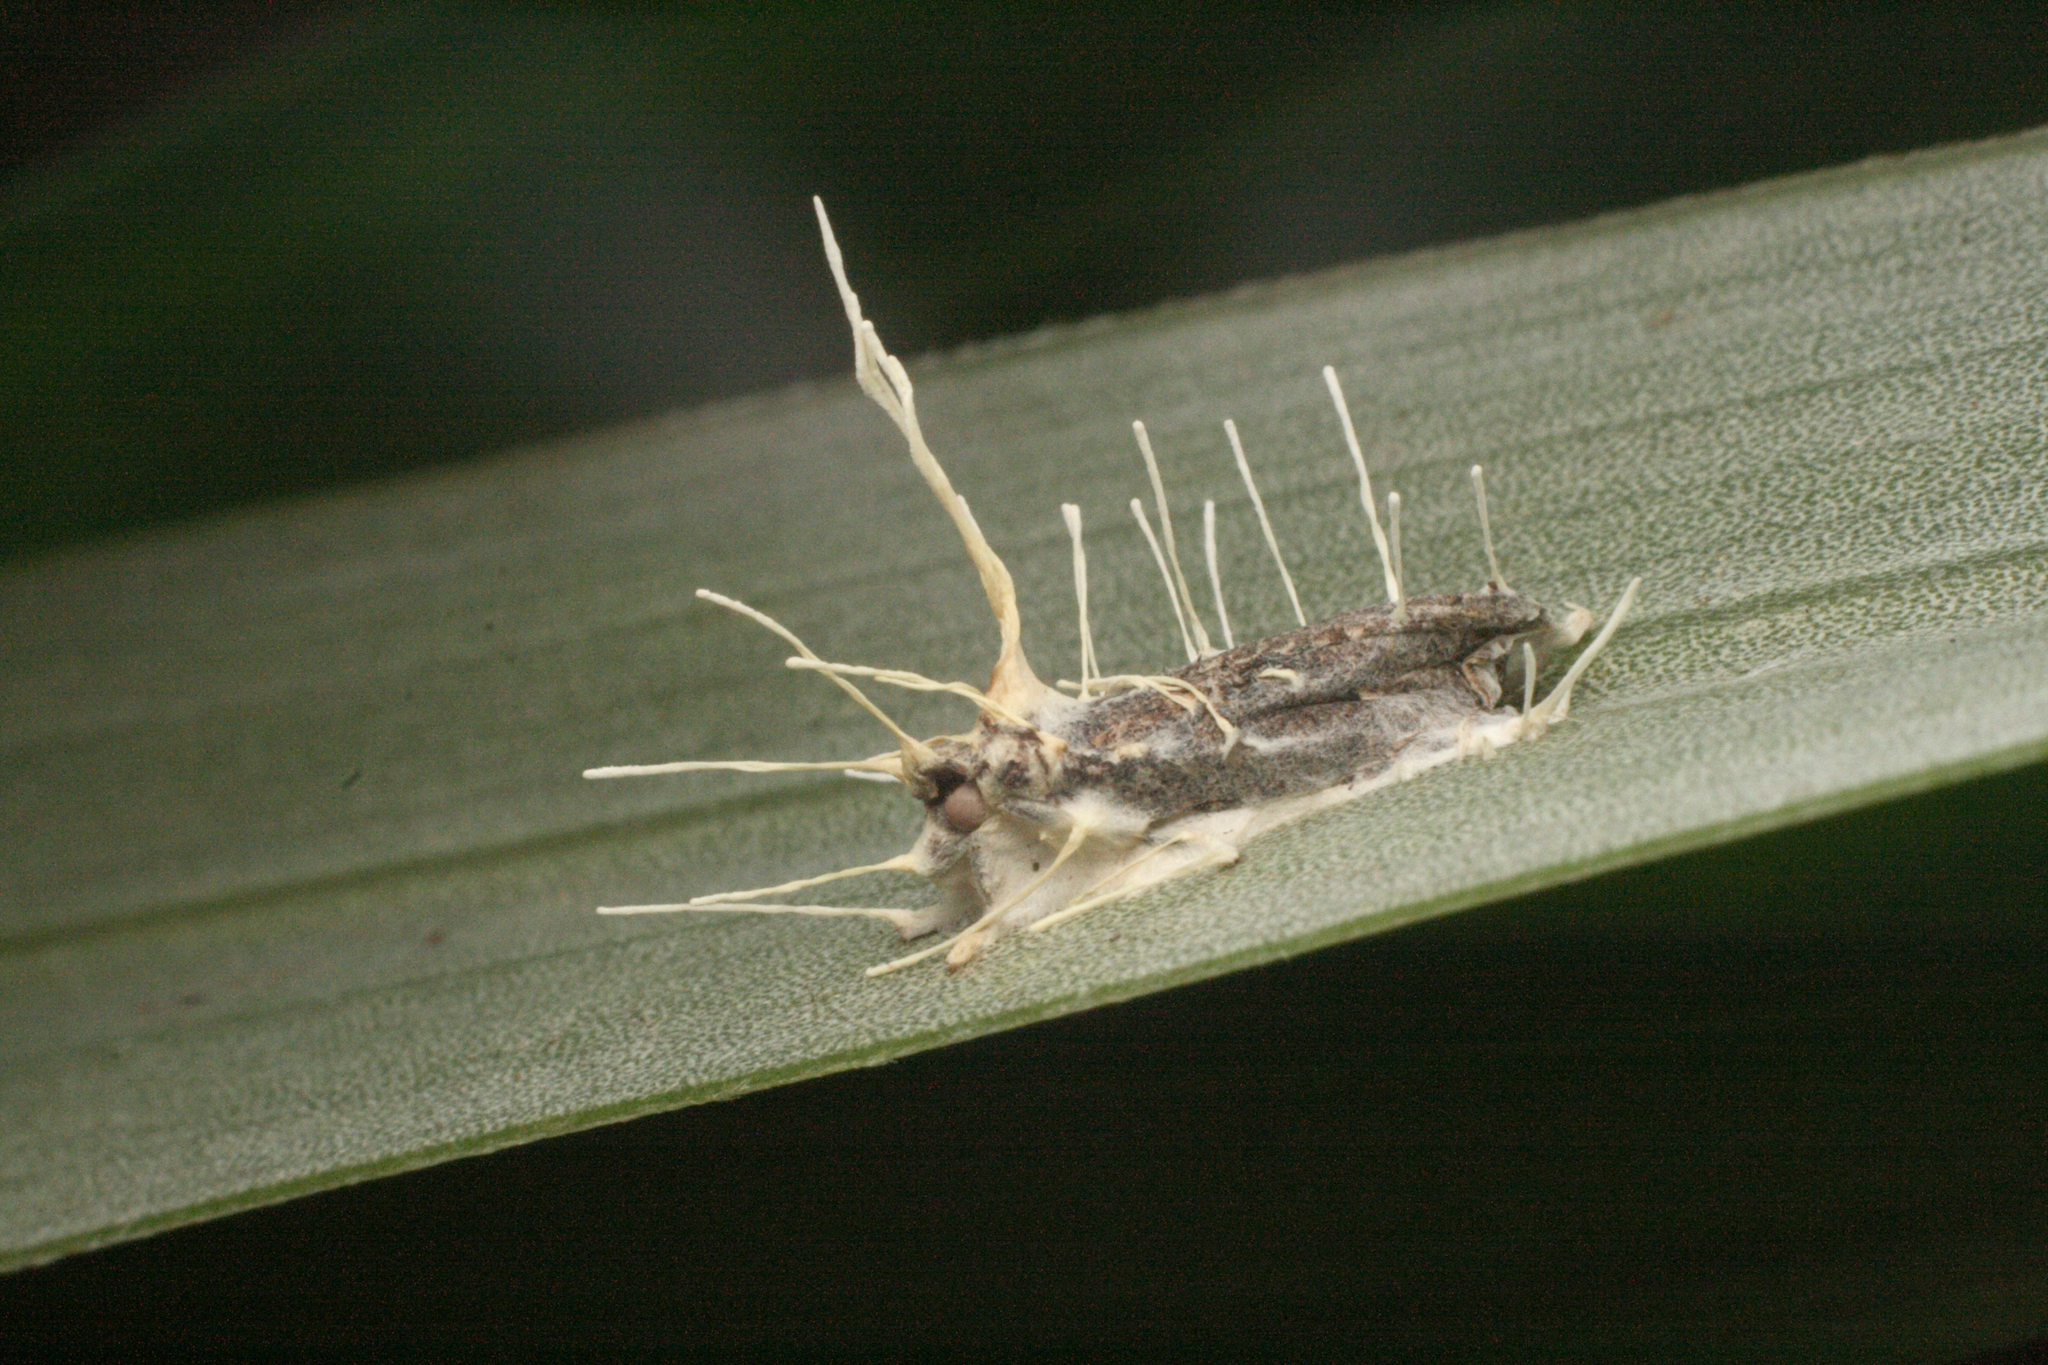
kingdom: Fungi
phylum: Ascomycota
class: Sordariomycetes
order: Hypocreales
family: Cordycipitaceae
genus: Akanthomyces
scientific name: Akanthomyces
